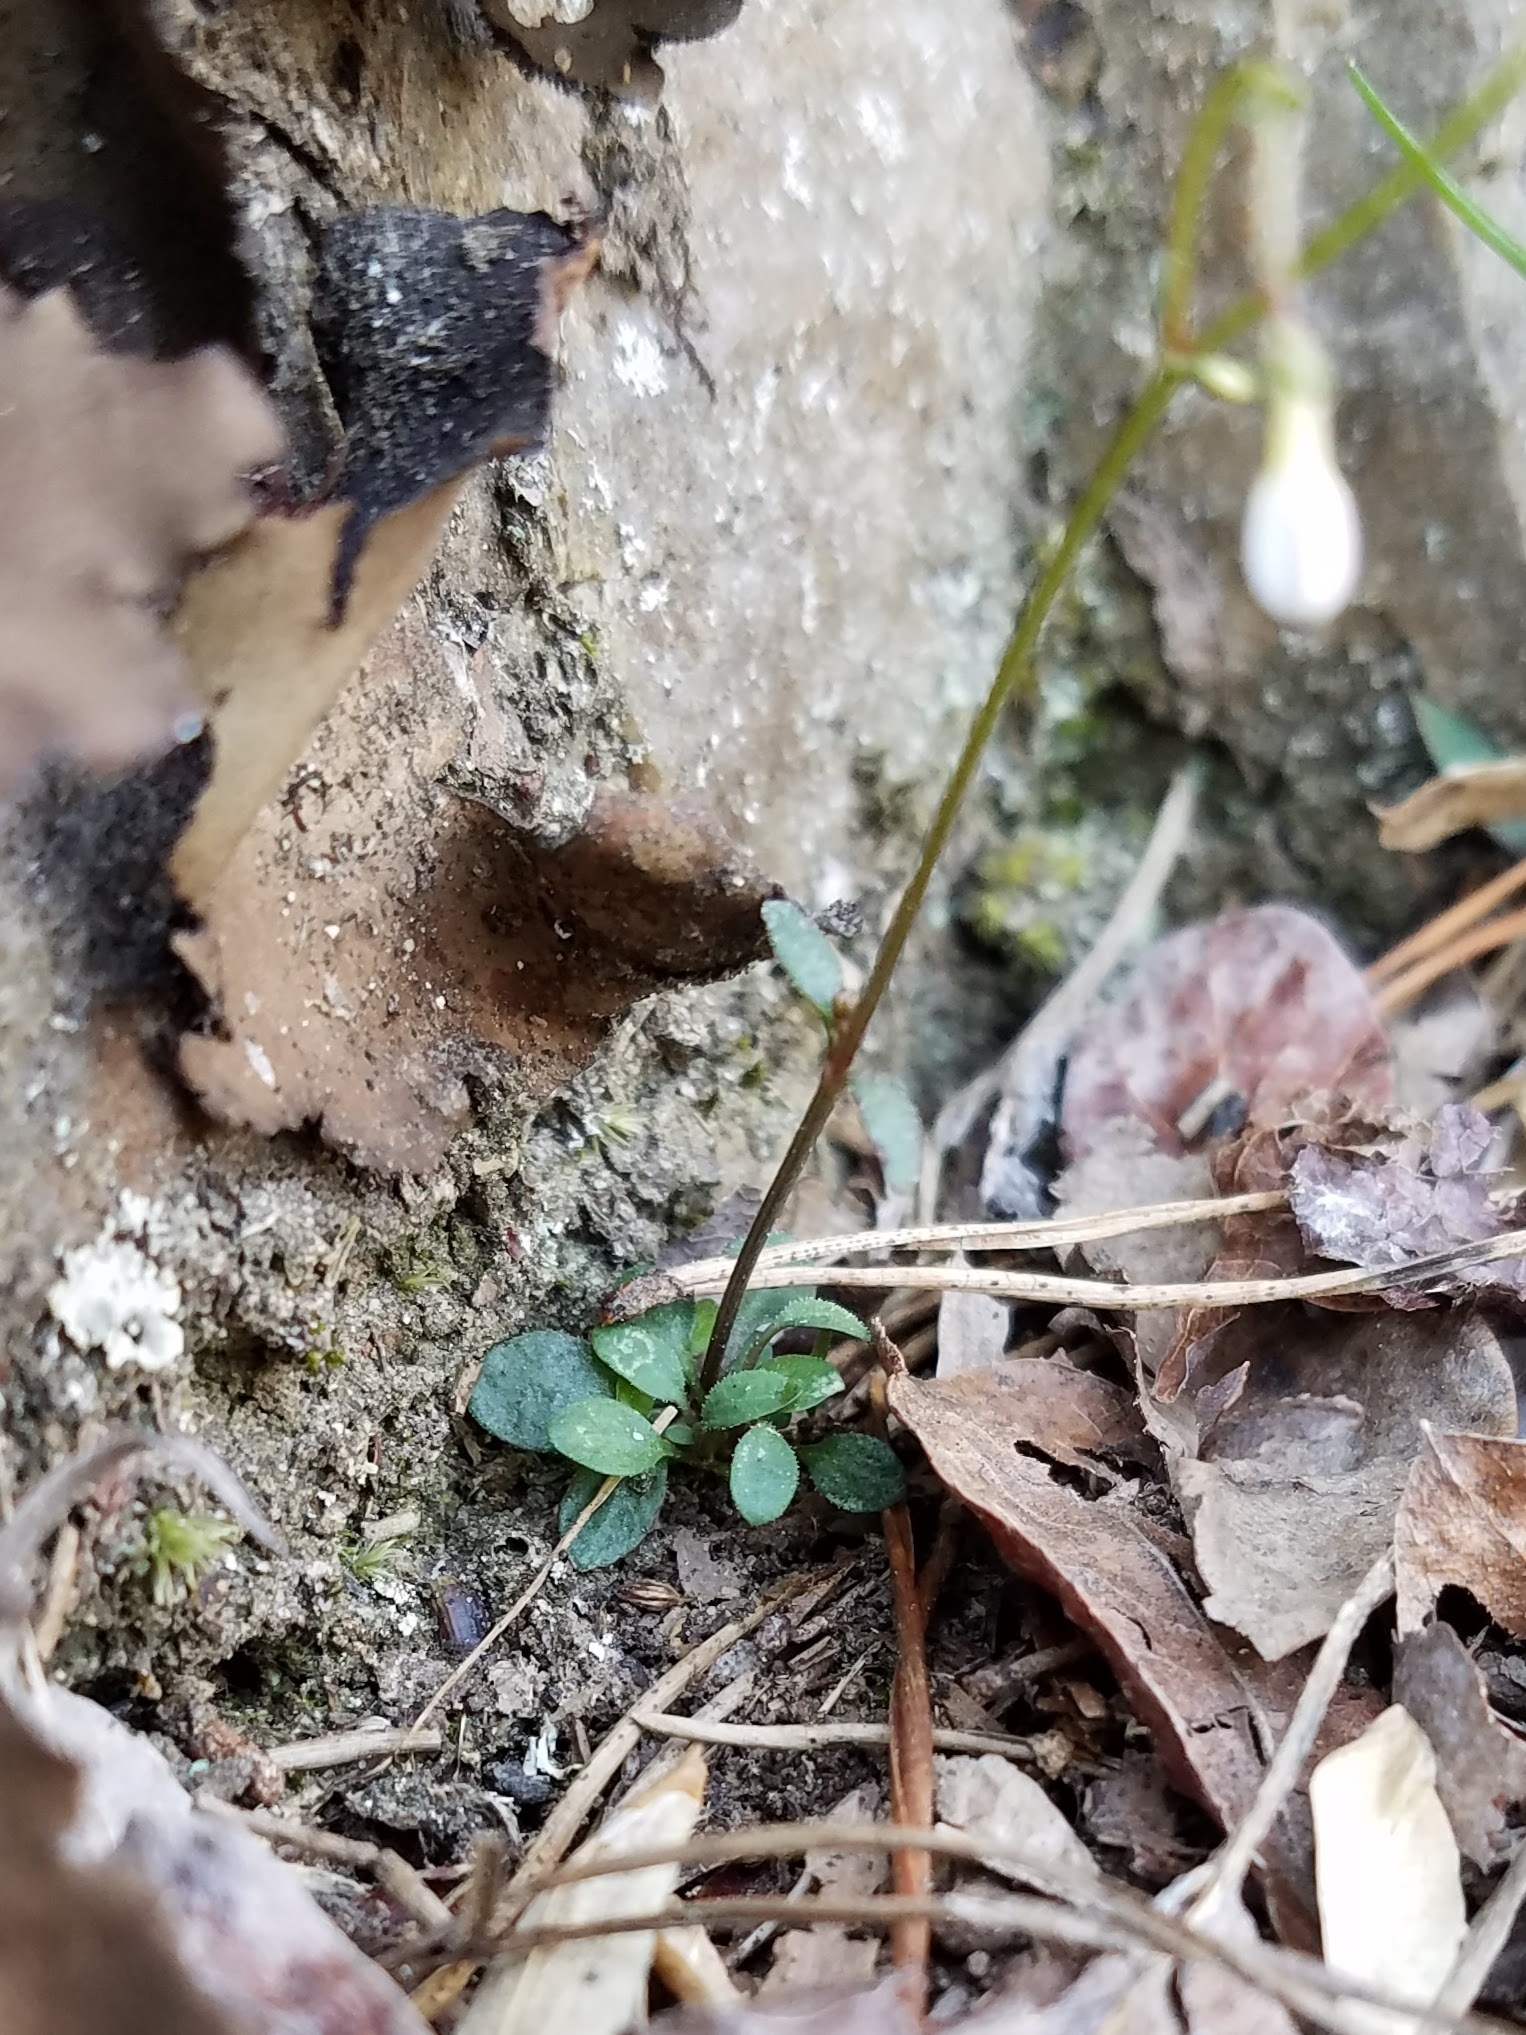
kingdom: Plantae
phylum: Tracheophyta
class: Magnoliopsida
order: Gentianales
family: Rubiaceae
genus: Houstonia
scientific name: Houstonia caerulea
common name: Bluets
